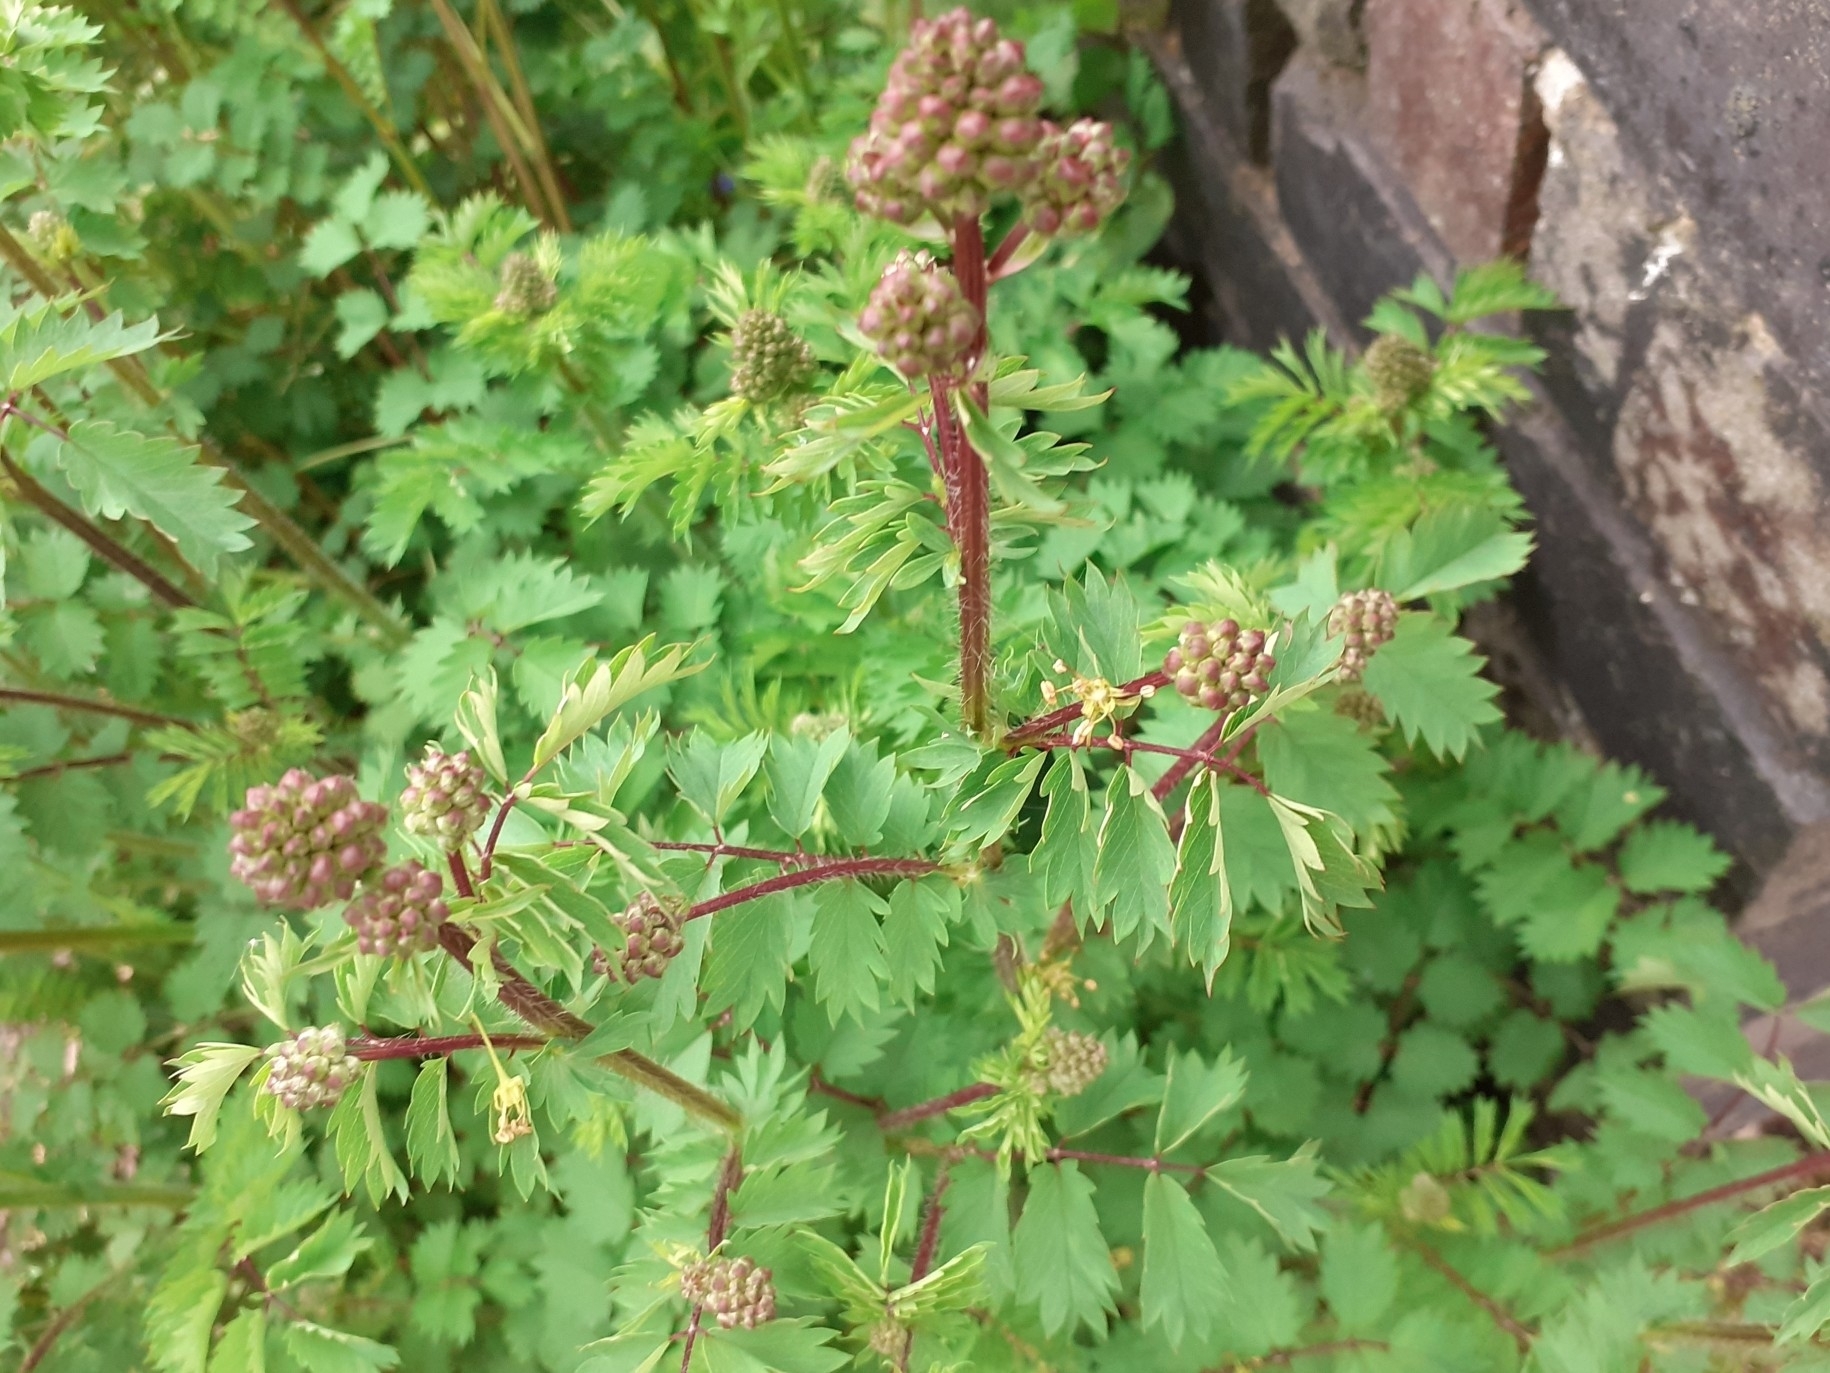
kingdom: Plantae
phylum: Tracheophyta
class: Magnoliopsida
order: Rosales
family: Rosaceae
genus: Poterium
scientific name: Poterium sanguisorba
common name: Salad burnet
